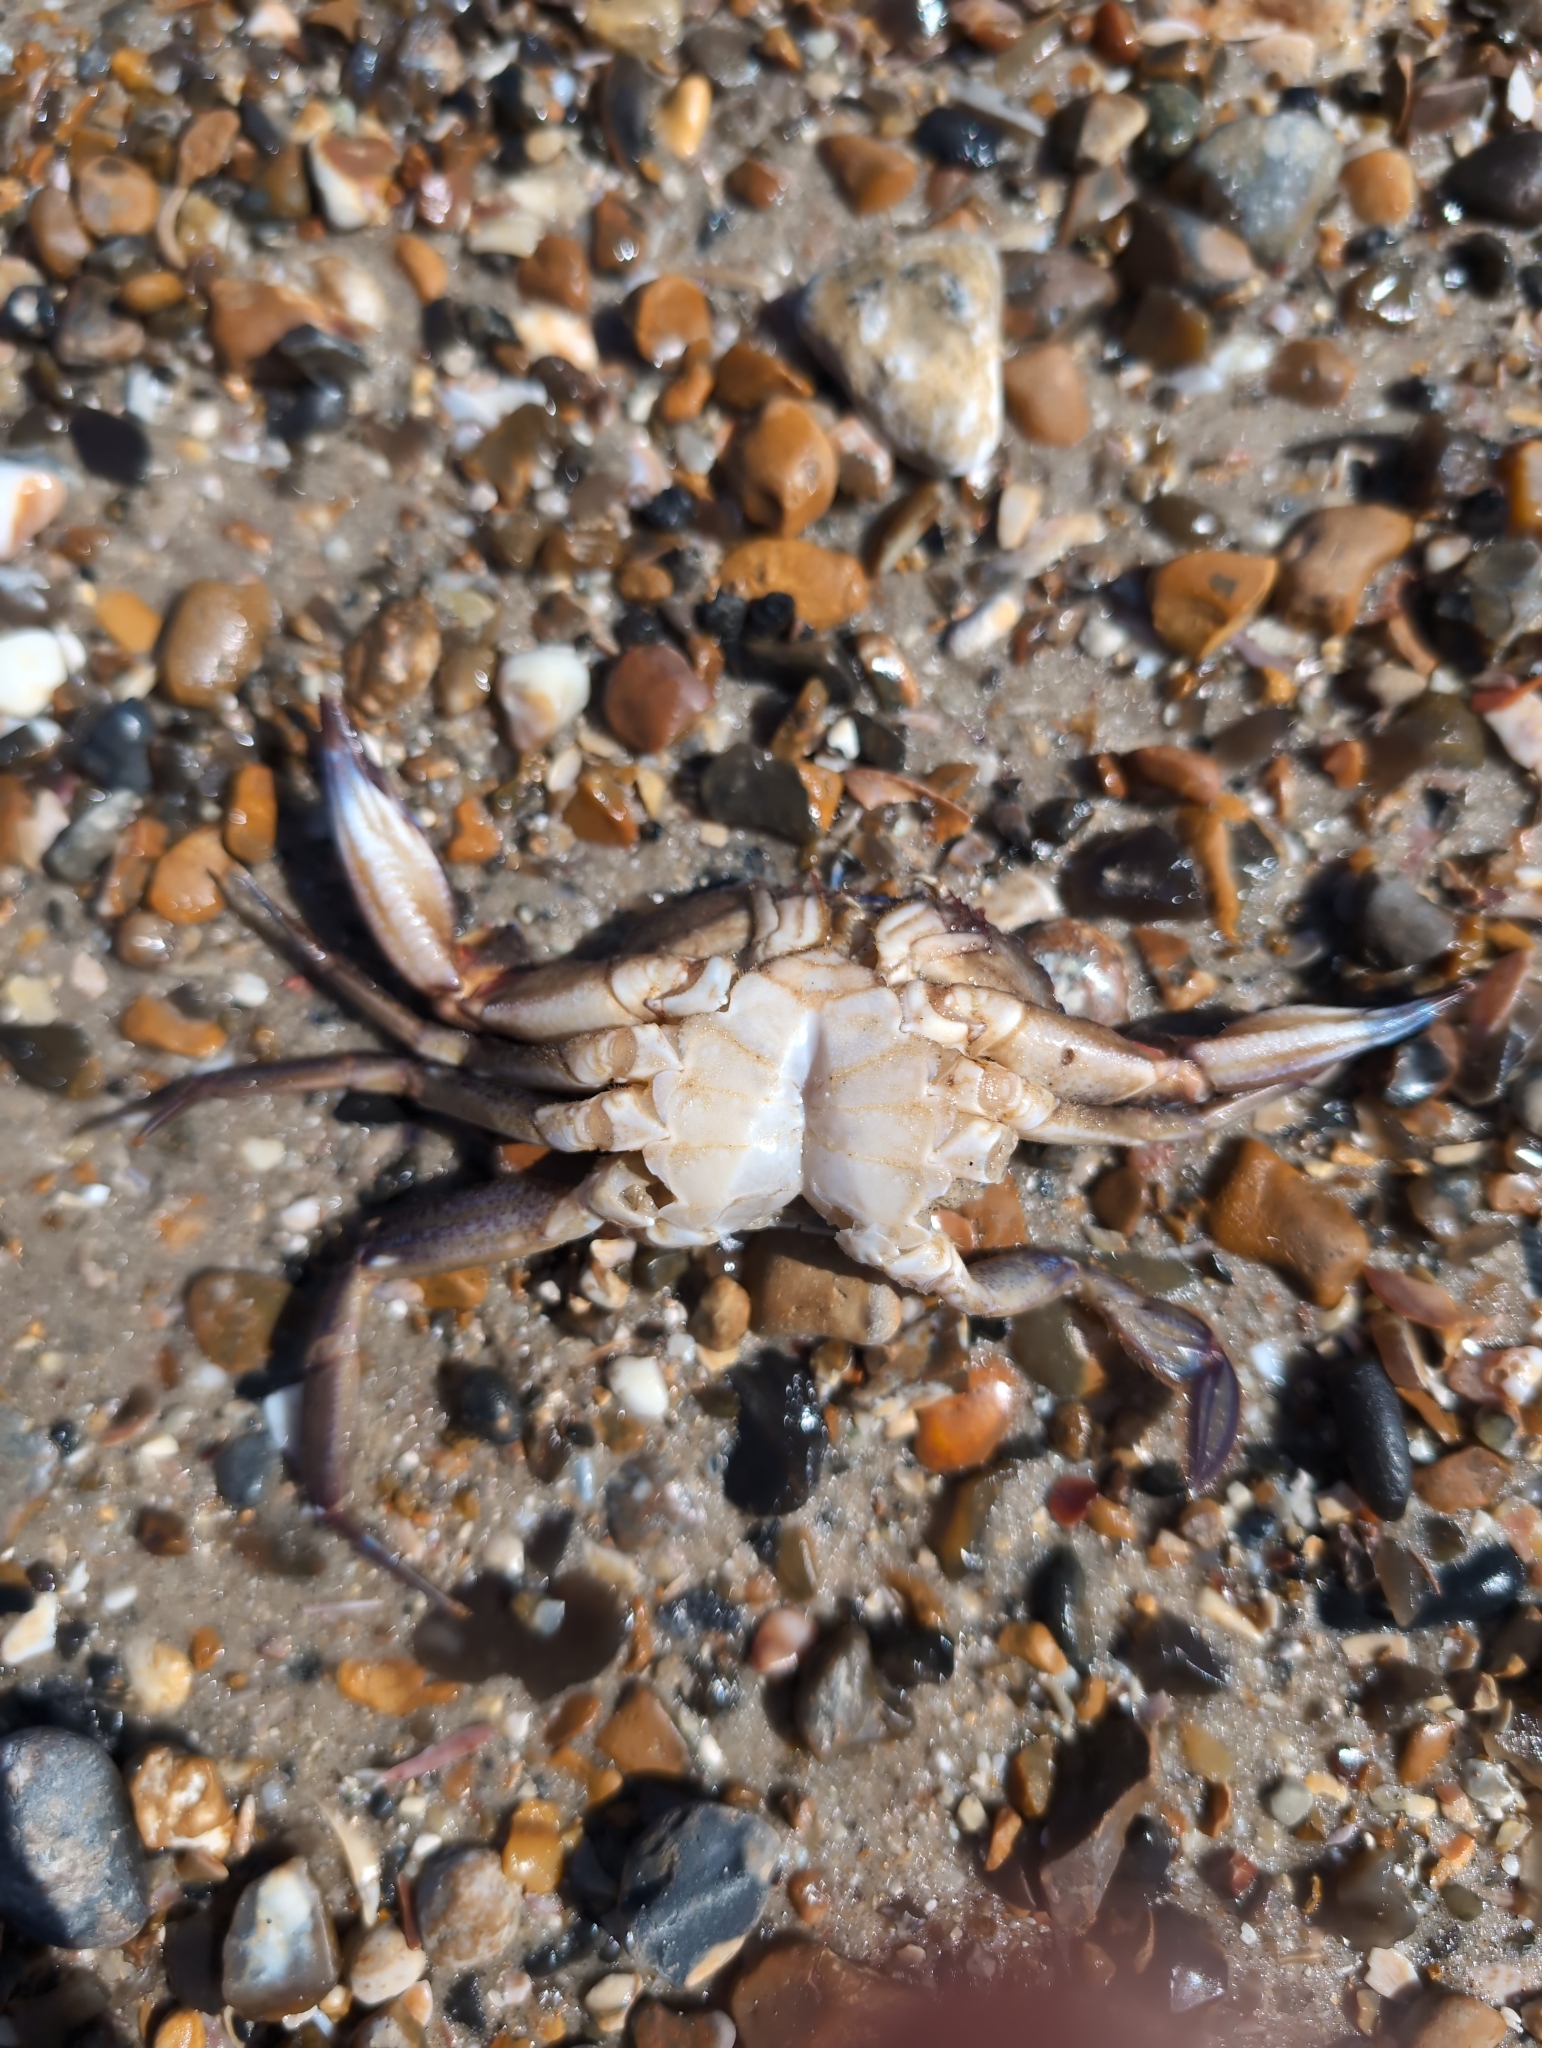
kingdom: Animalia
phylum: Arthropoda
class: Malacostraca
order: Decapoda
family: Polybiidae
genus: Necora
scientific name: Necora puber
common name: Velvet swimming crab
